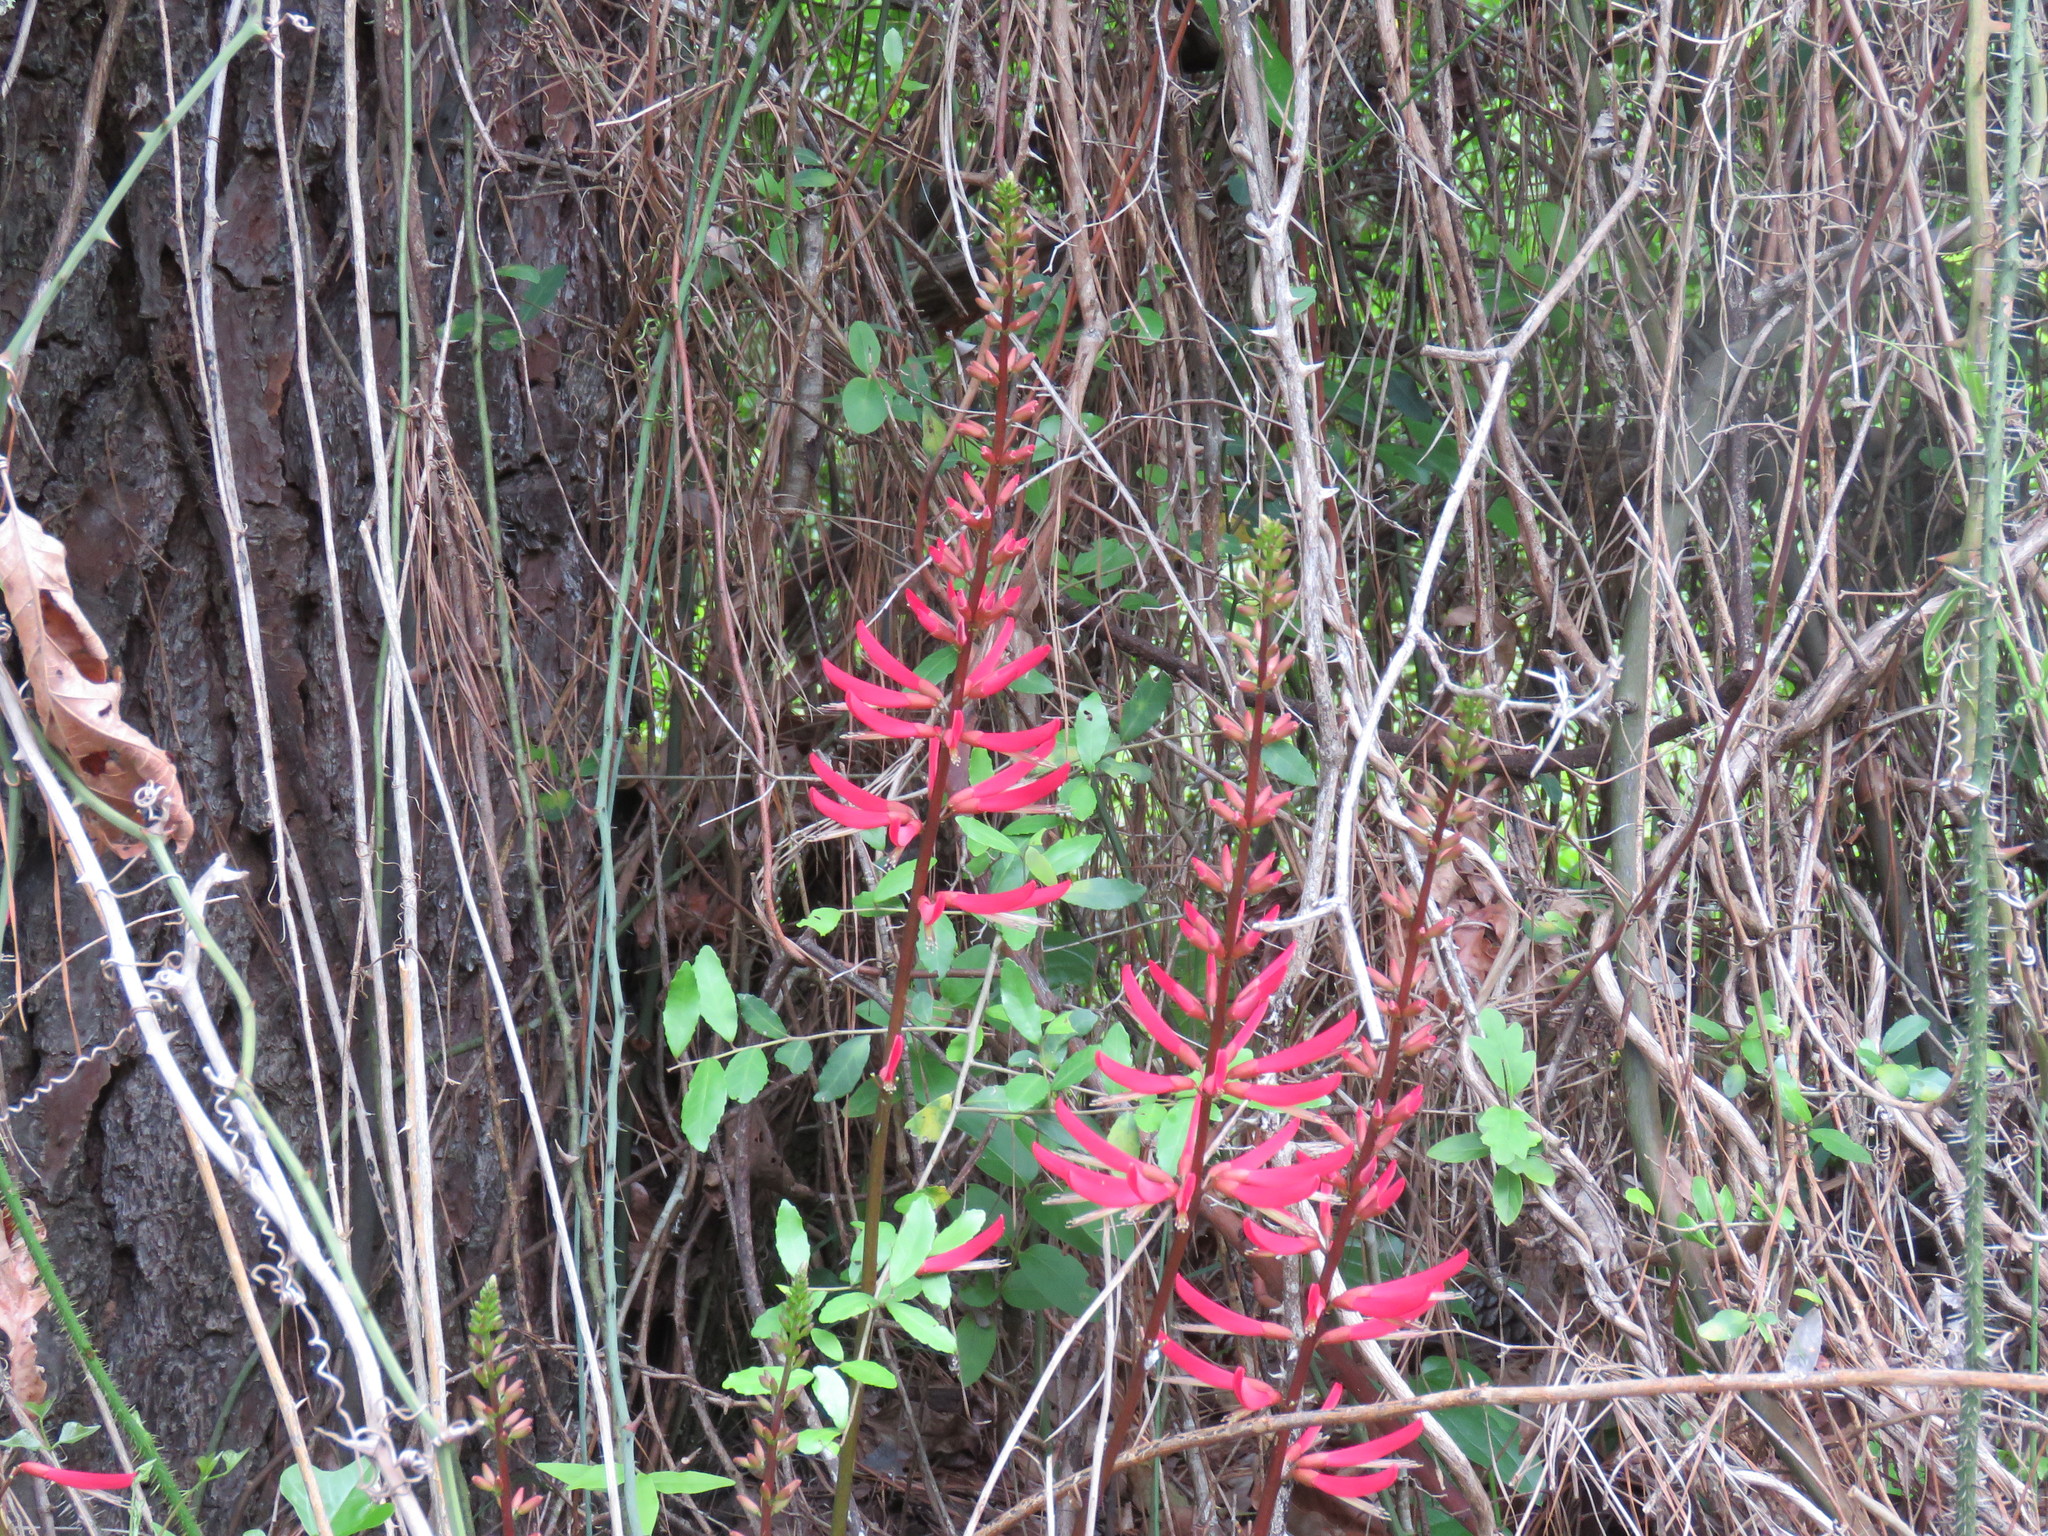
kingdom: Plantae
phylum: Tracheophyta
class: Magnoliopsida
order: Fabales
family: Fabaceae
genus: Erythrina
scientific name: Erythrina herbacea
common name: Coral-bean
